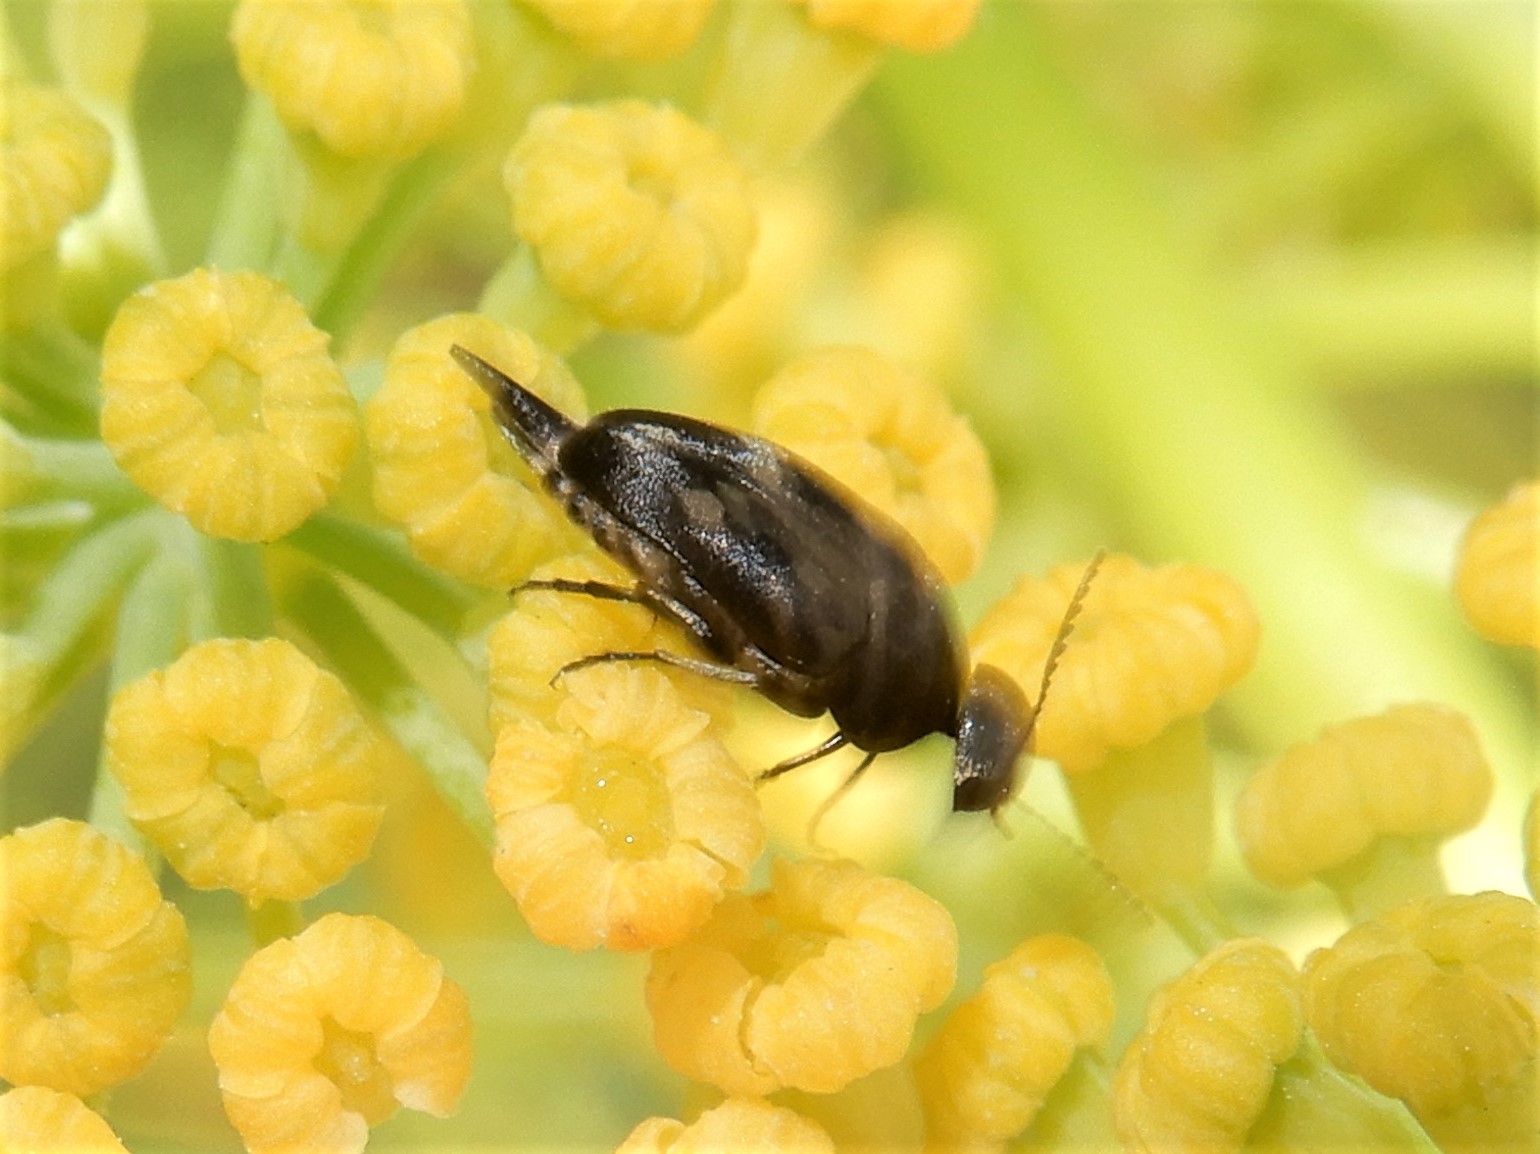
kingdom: Animalia
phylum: Arthropoda
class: Insecta
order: Coleoptera
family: Mordellidae
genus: Zeamordella
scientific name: Zeamordella monacha
